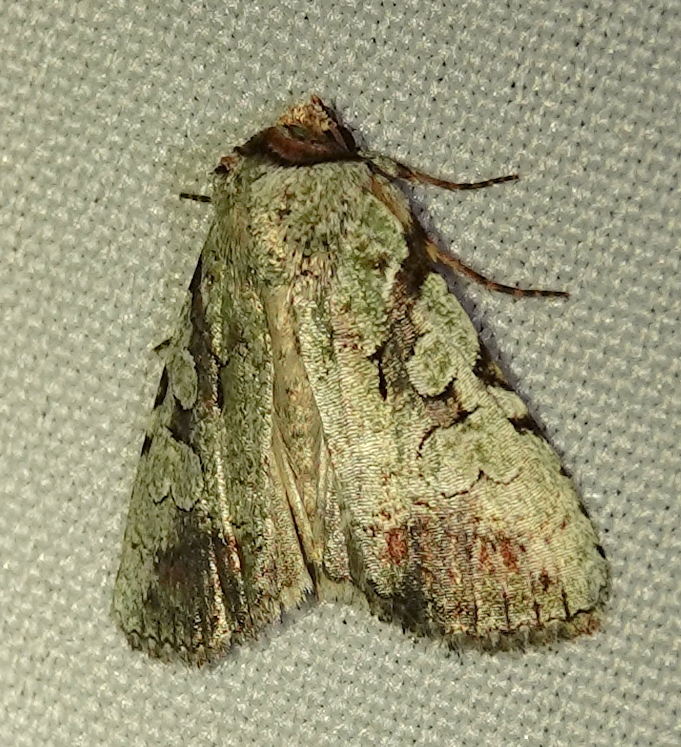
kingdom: Animalia
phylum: Arthropoda
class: Insecta
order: Lepidoptera
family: Noctuidae
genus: Perigea
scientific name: Perigea glaucoptera
